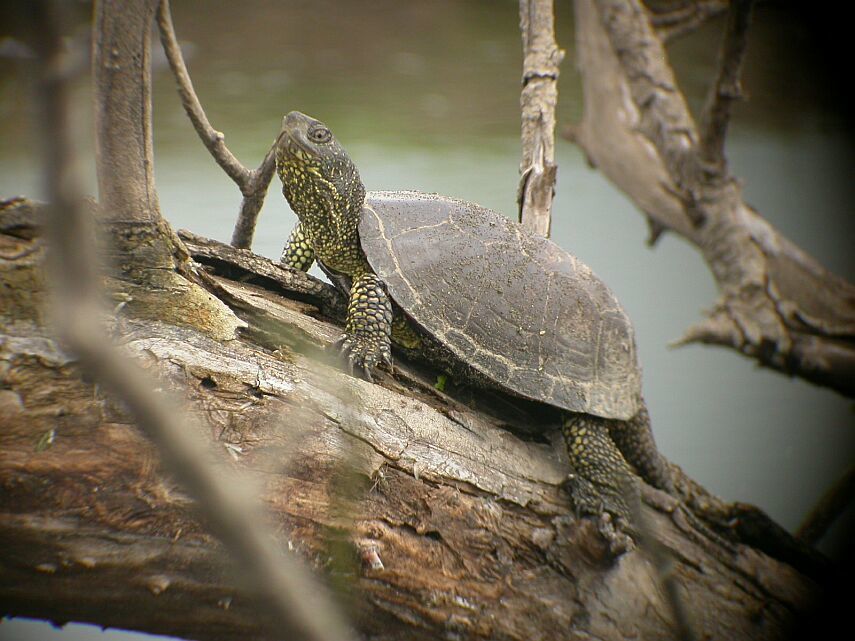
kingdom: Animalia
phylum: Chordata
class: Testudines
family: Emydidae
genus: Emys
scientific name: Emys orbicularis
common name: European pond turtle
